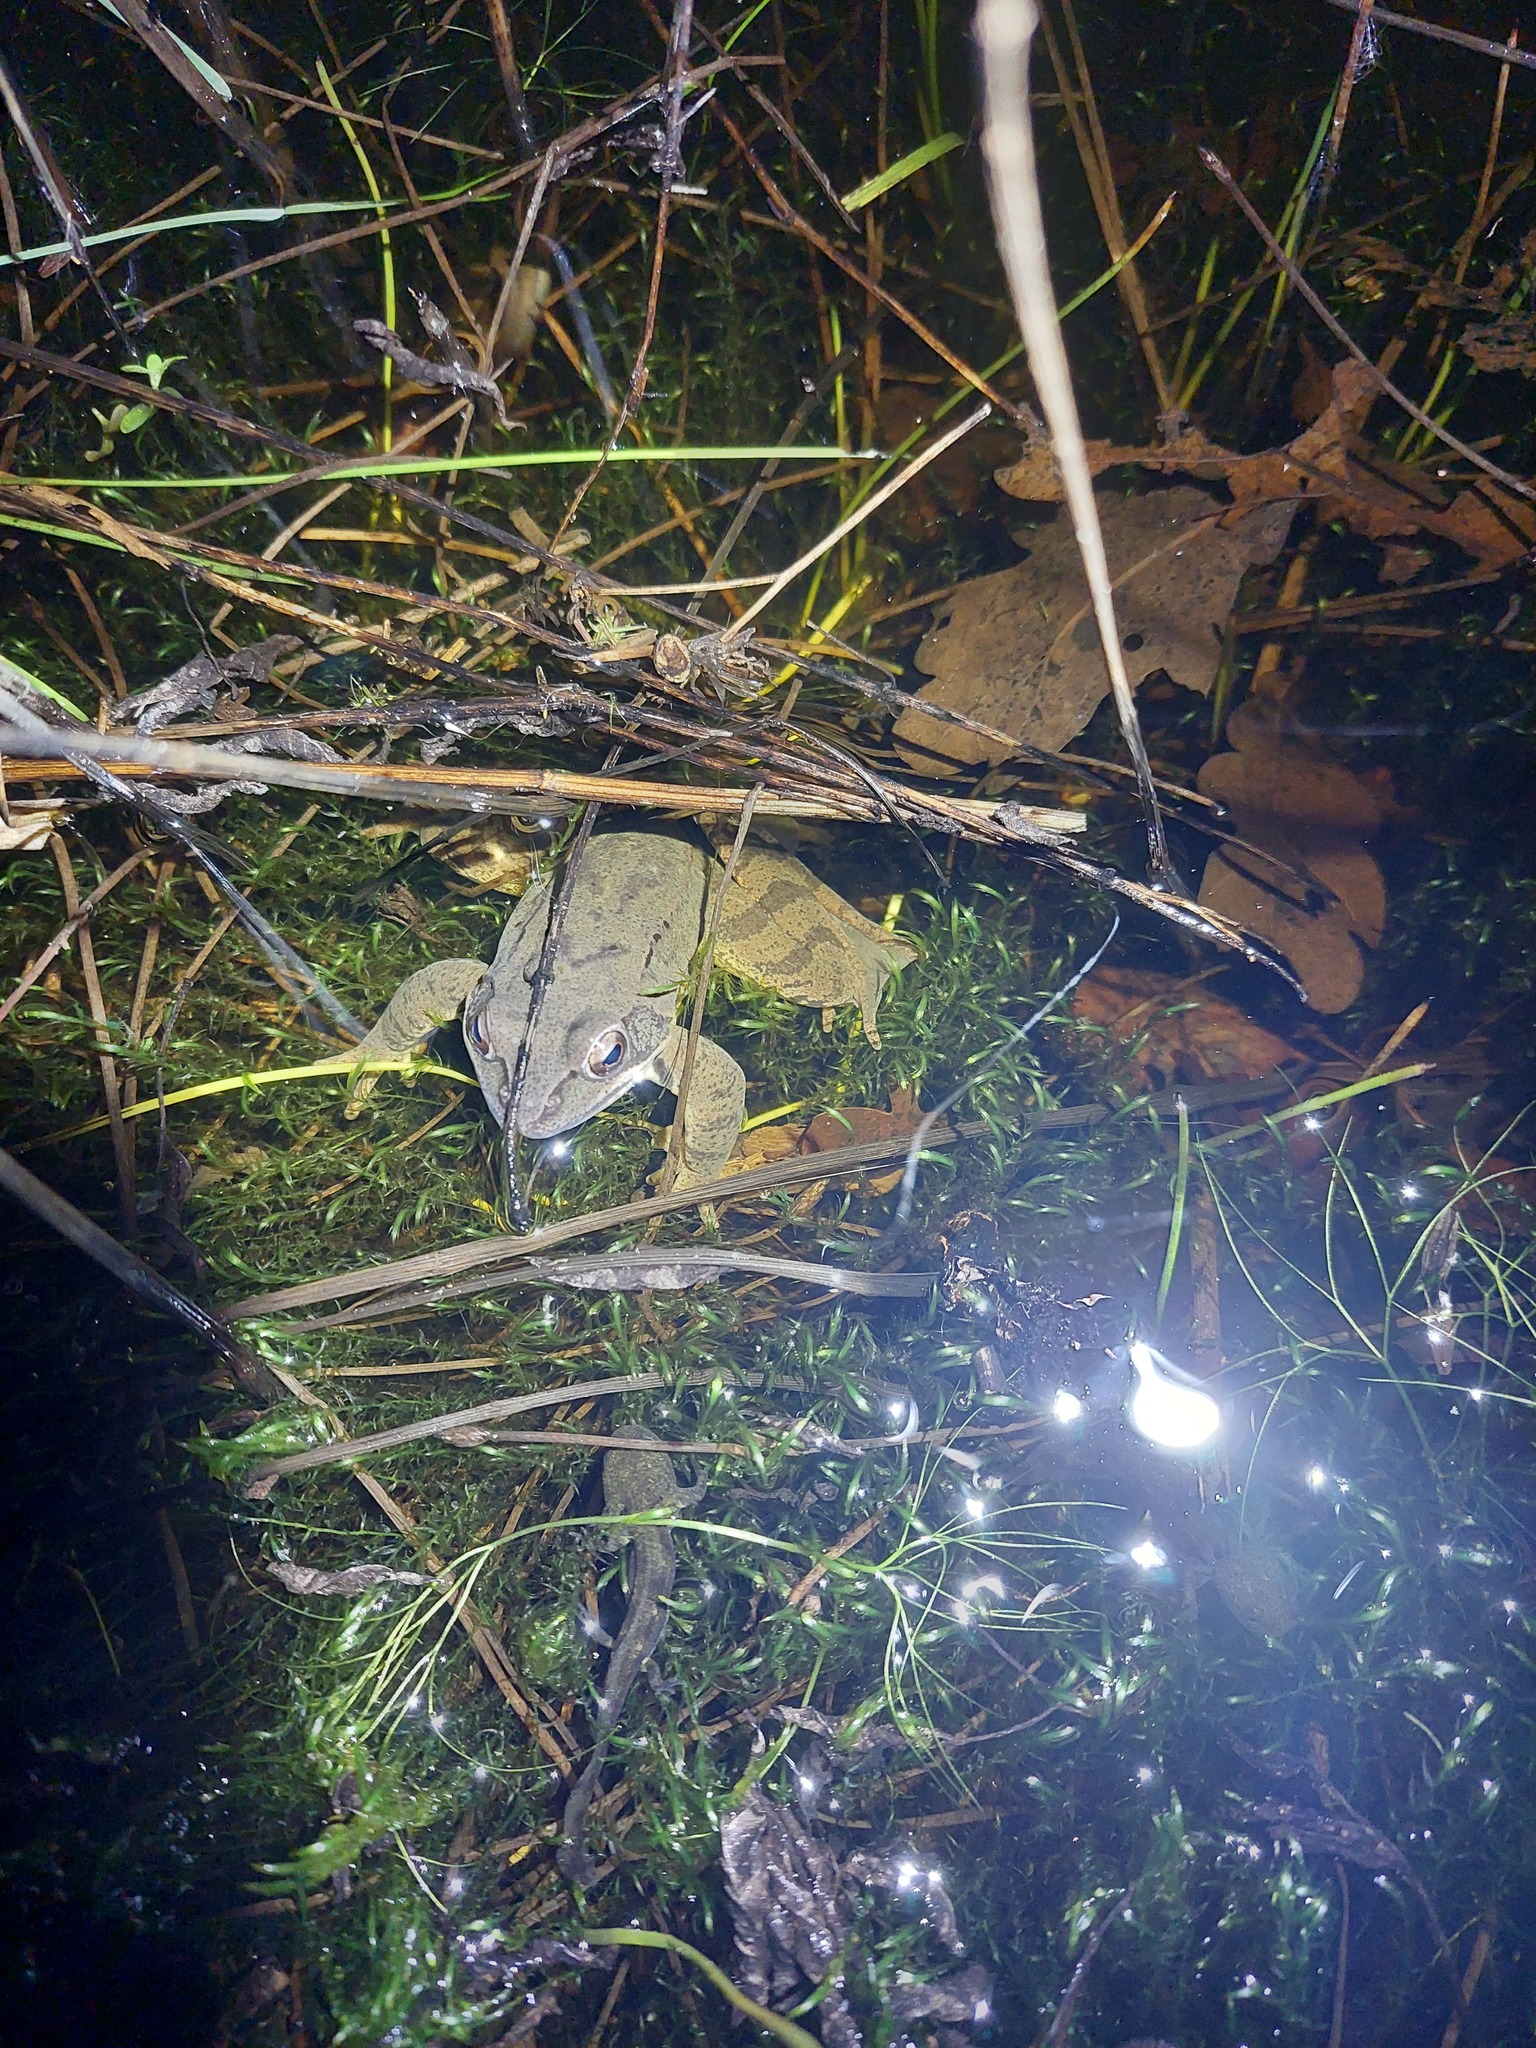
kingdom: Animalia
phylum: Chordata
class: Amphibia
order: Anura
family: Ranidae
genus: Rana
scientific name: Rana dalmatina
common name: Agile frog
